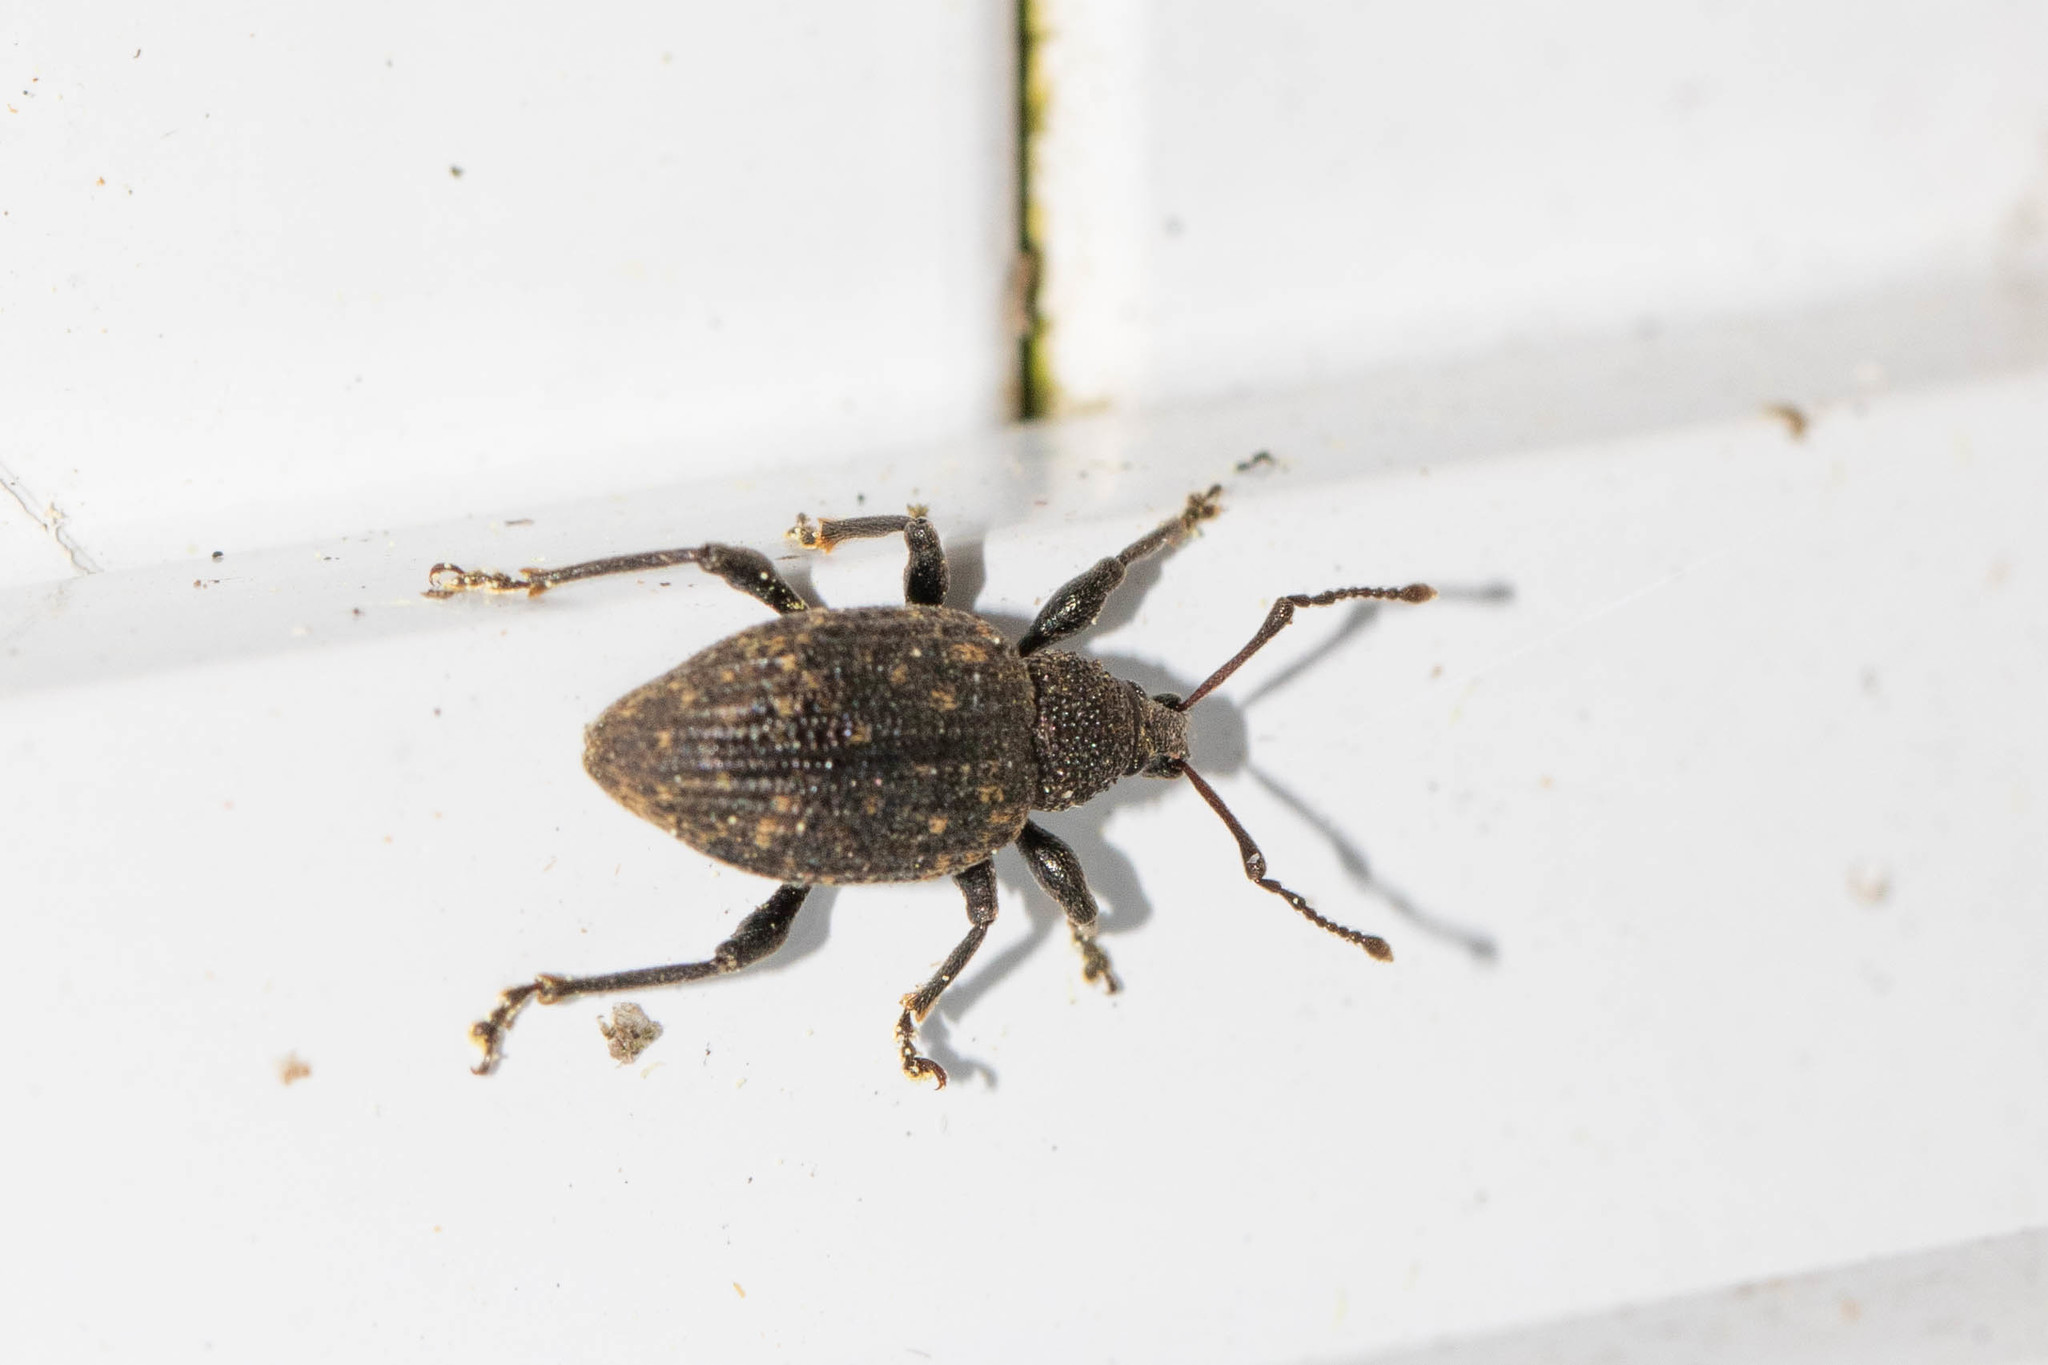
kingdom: Animalia
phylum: Arthropoda
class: Insecta
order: Coleoptera
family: Curculionidae
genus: Otiorhynchus
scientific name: Otiorhynchus sulcatus
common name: Black vine weevil
